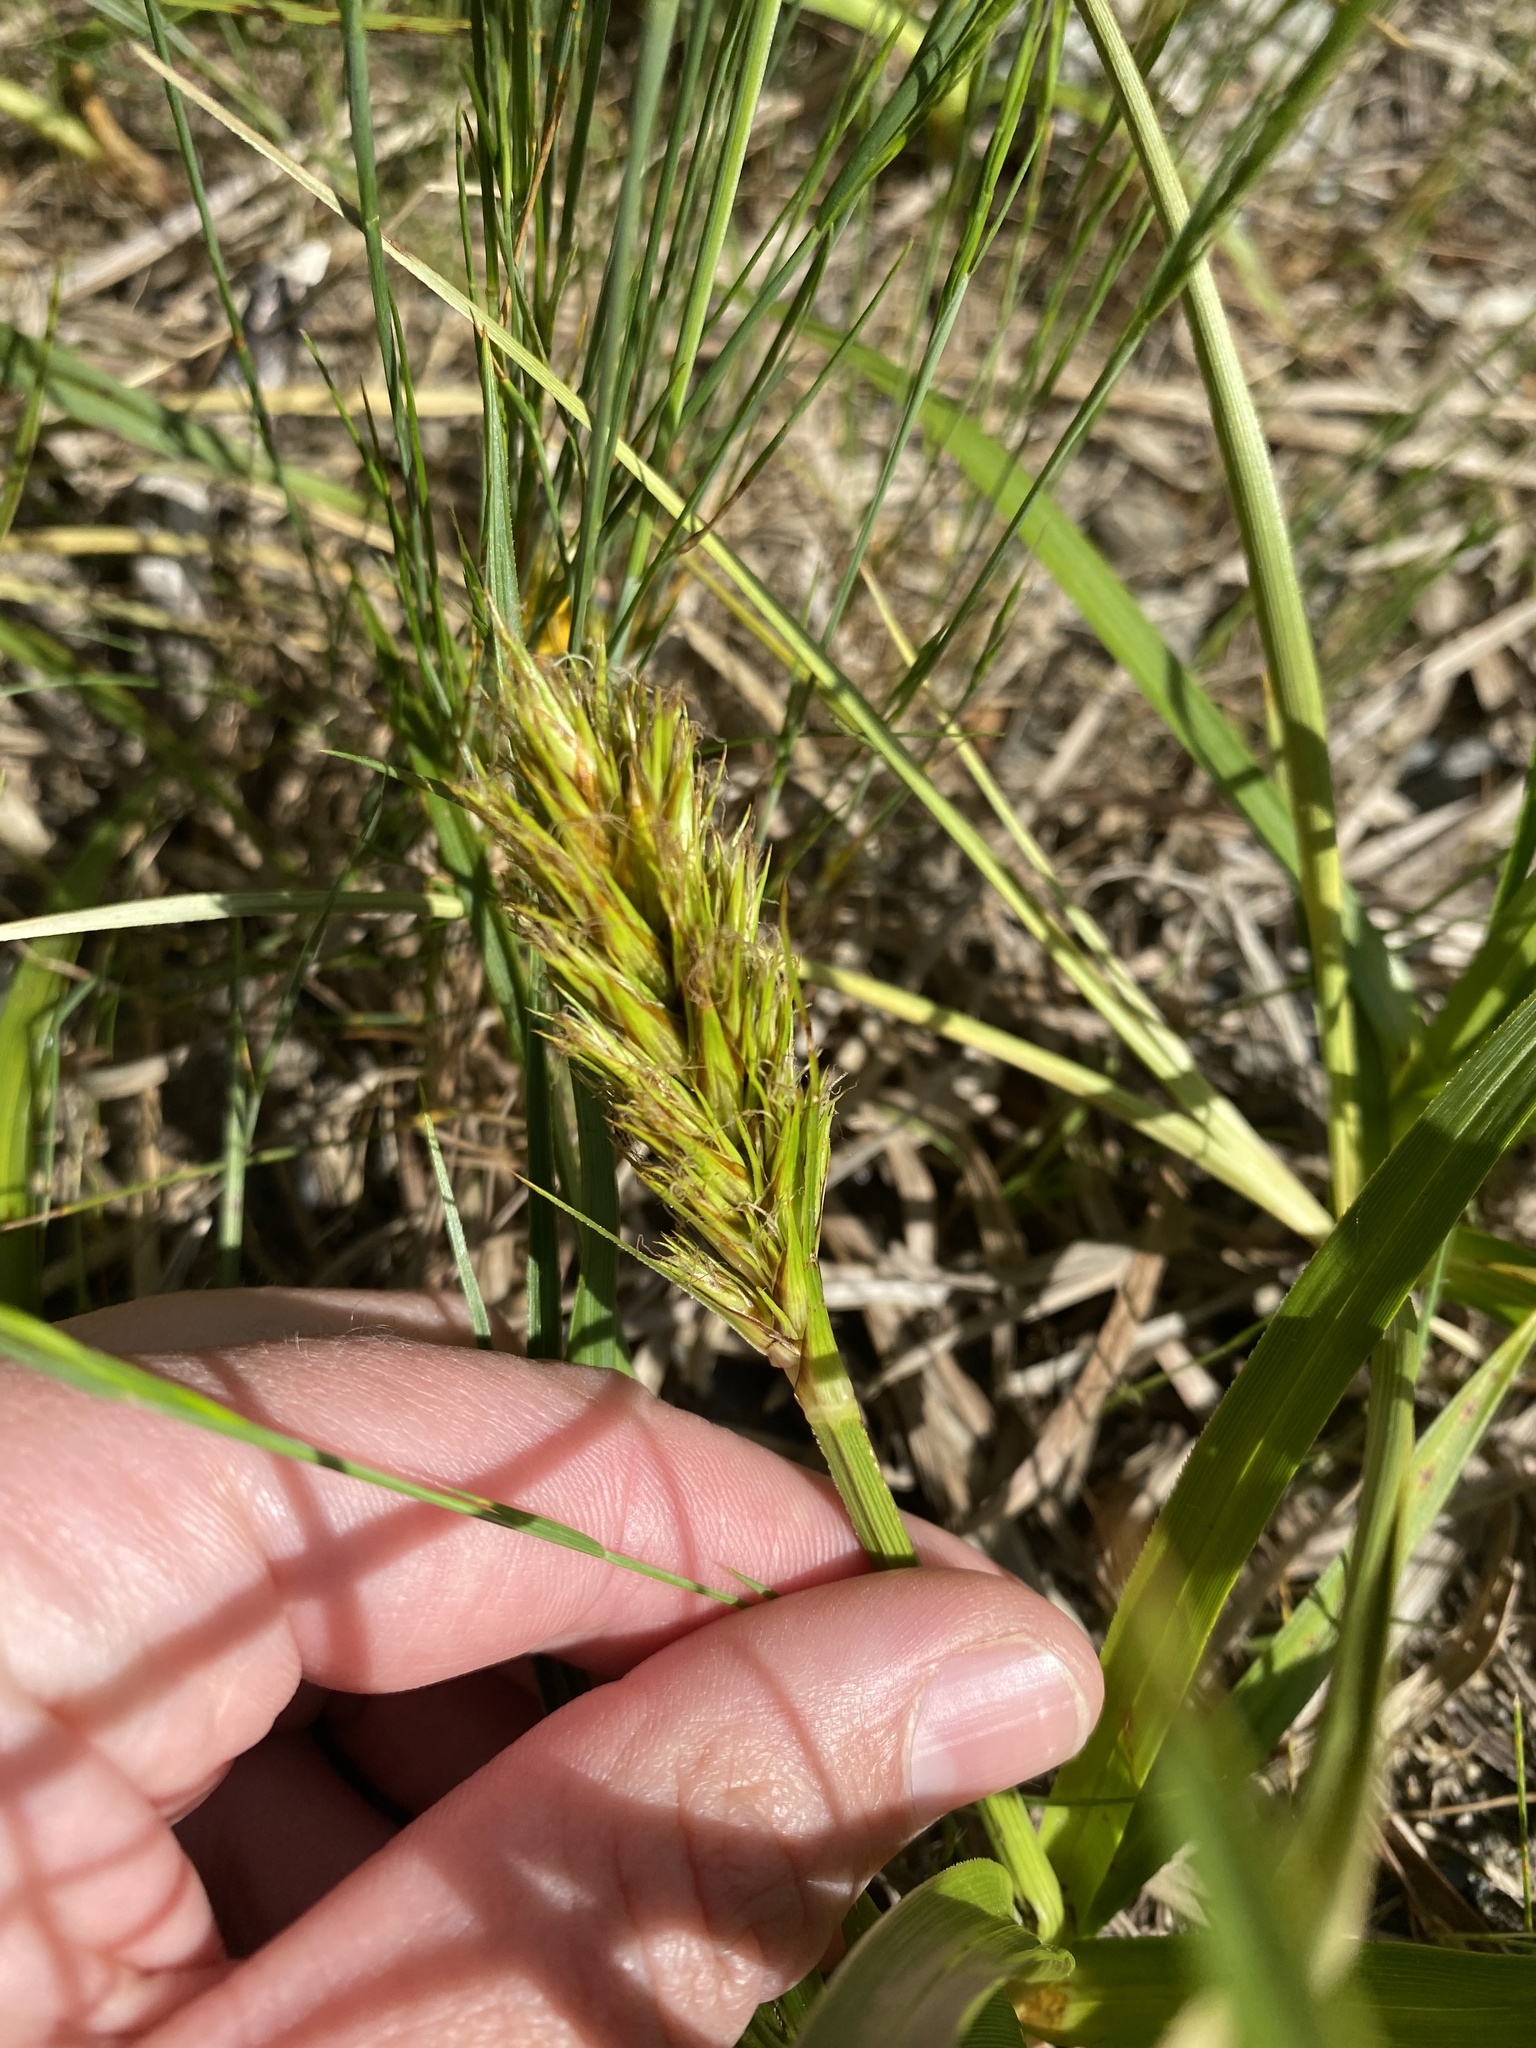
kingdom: Plantae
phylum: Tracheophyta
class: Liliopsida
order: Poales
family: Cyperaceae
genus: Carex
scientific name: Carex macrocephala
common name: Large-head sedge
